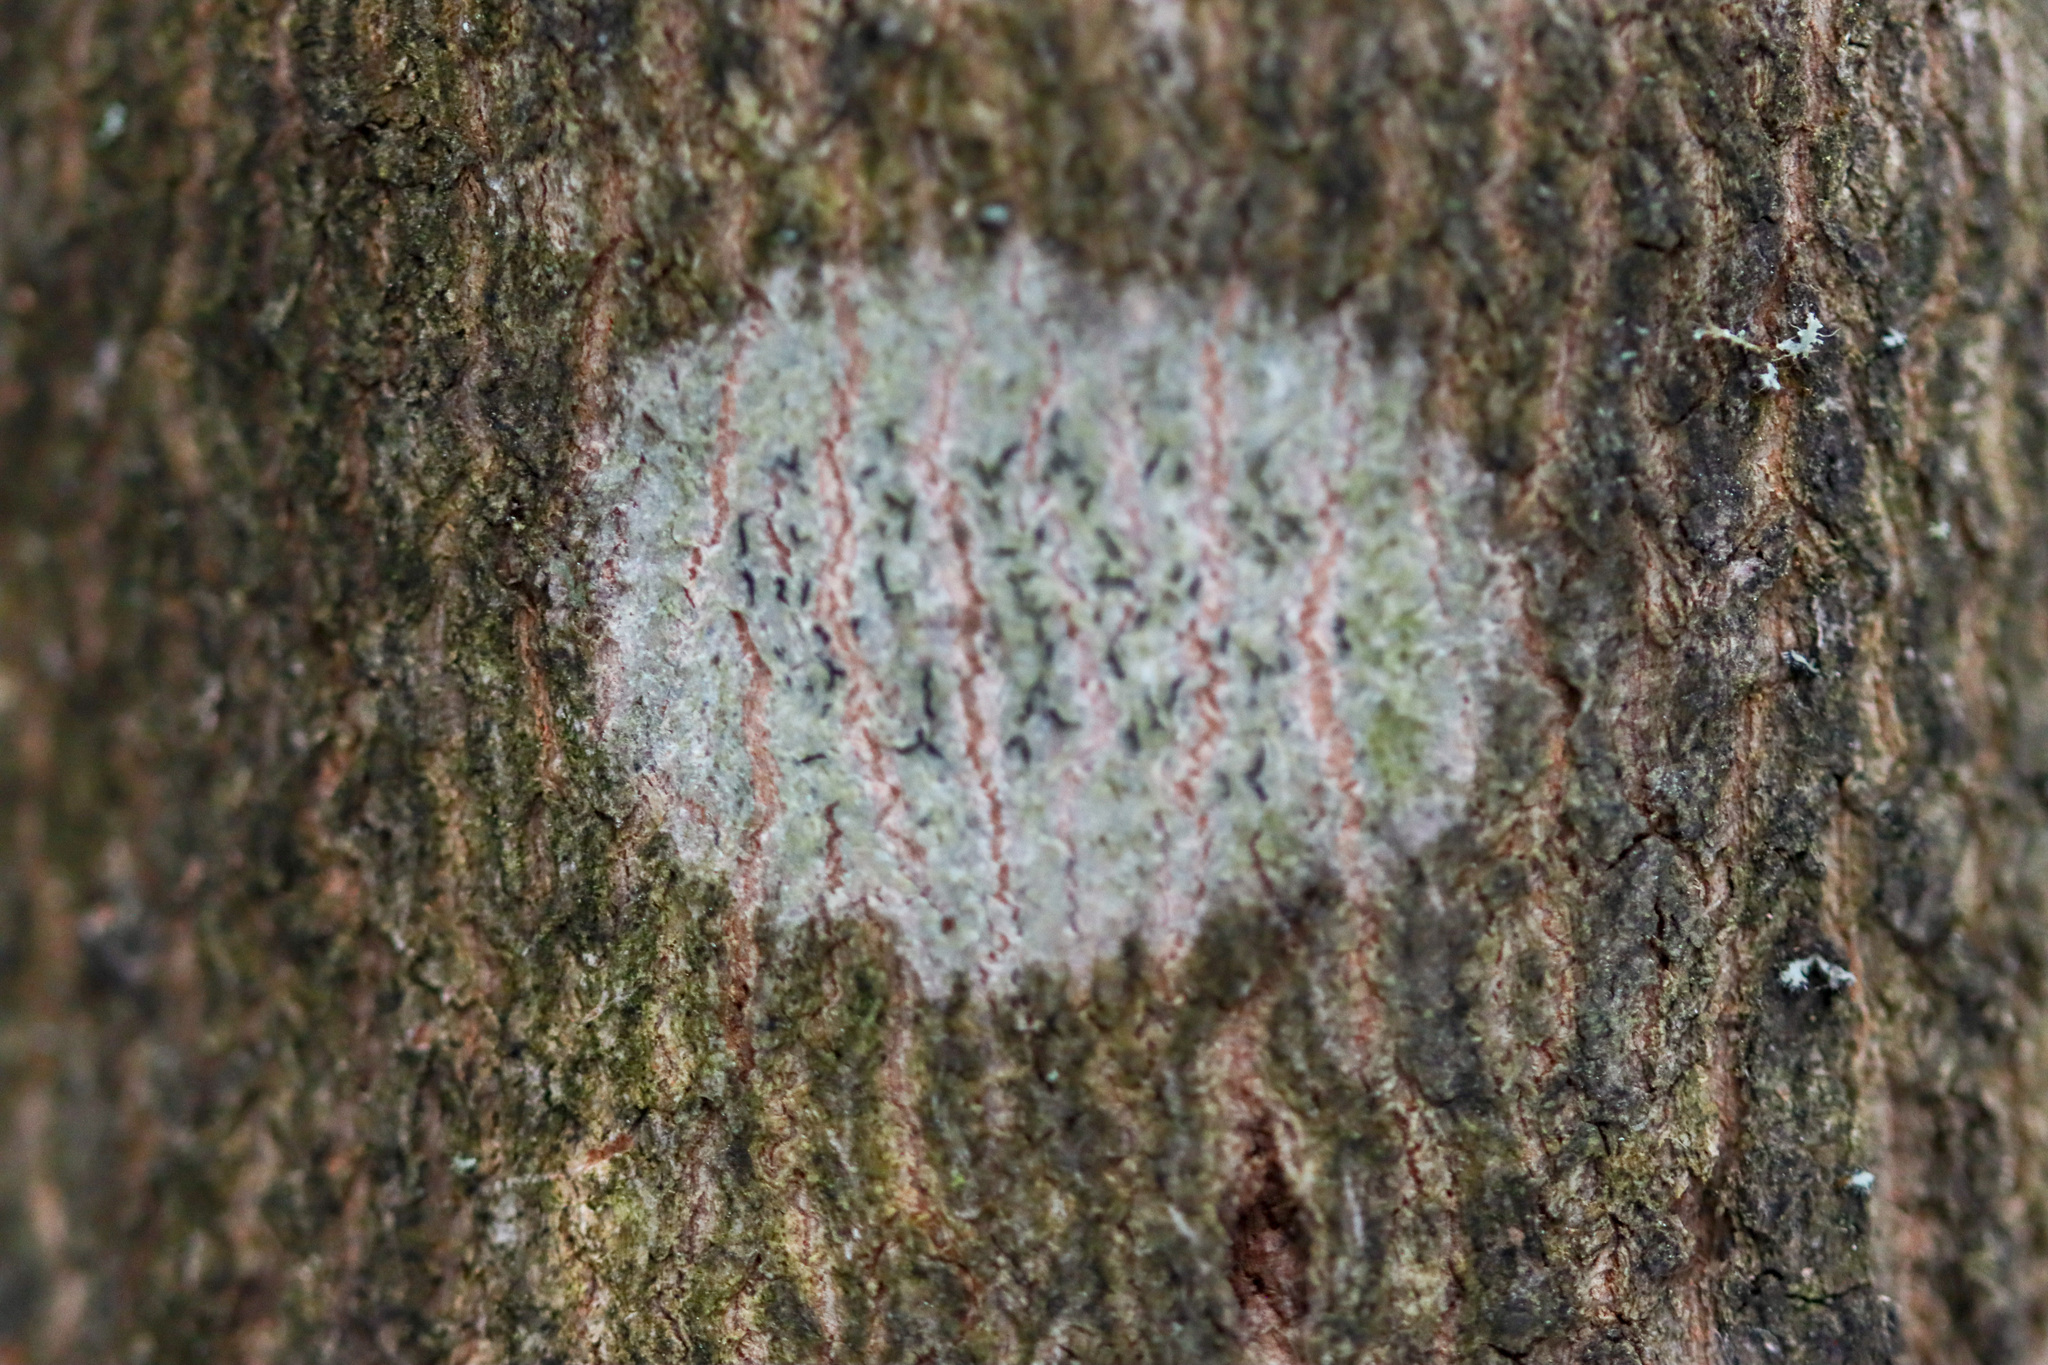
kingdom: Fungi
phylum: Ascomycota
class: Lecanoromycetes
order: Ostropales
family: Graphidaceae
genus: Graphis
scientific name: Graphis scripta
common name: Script lichen
